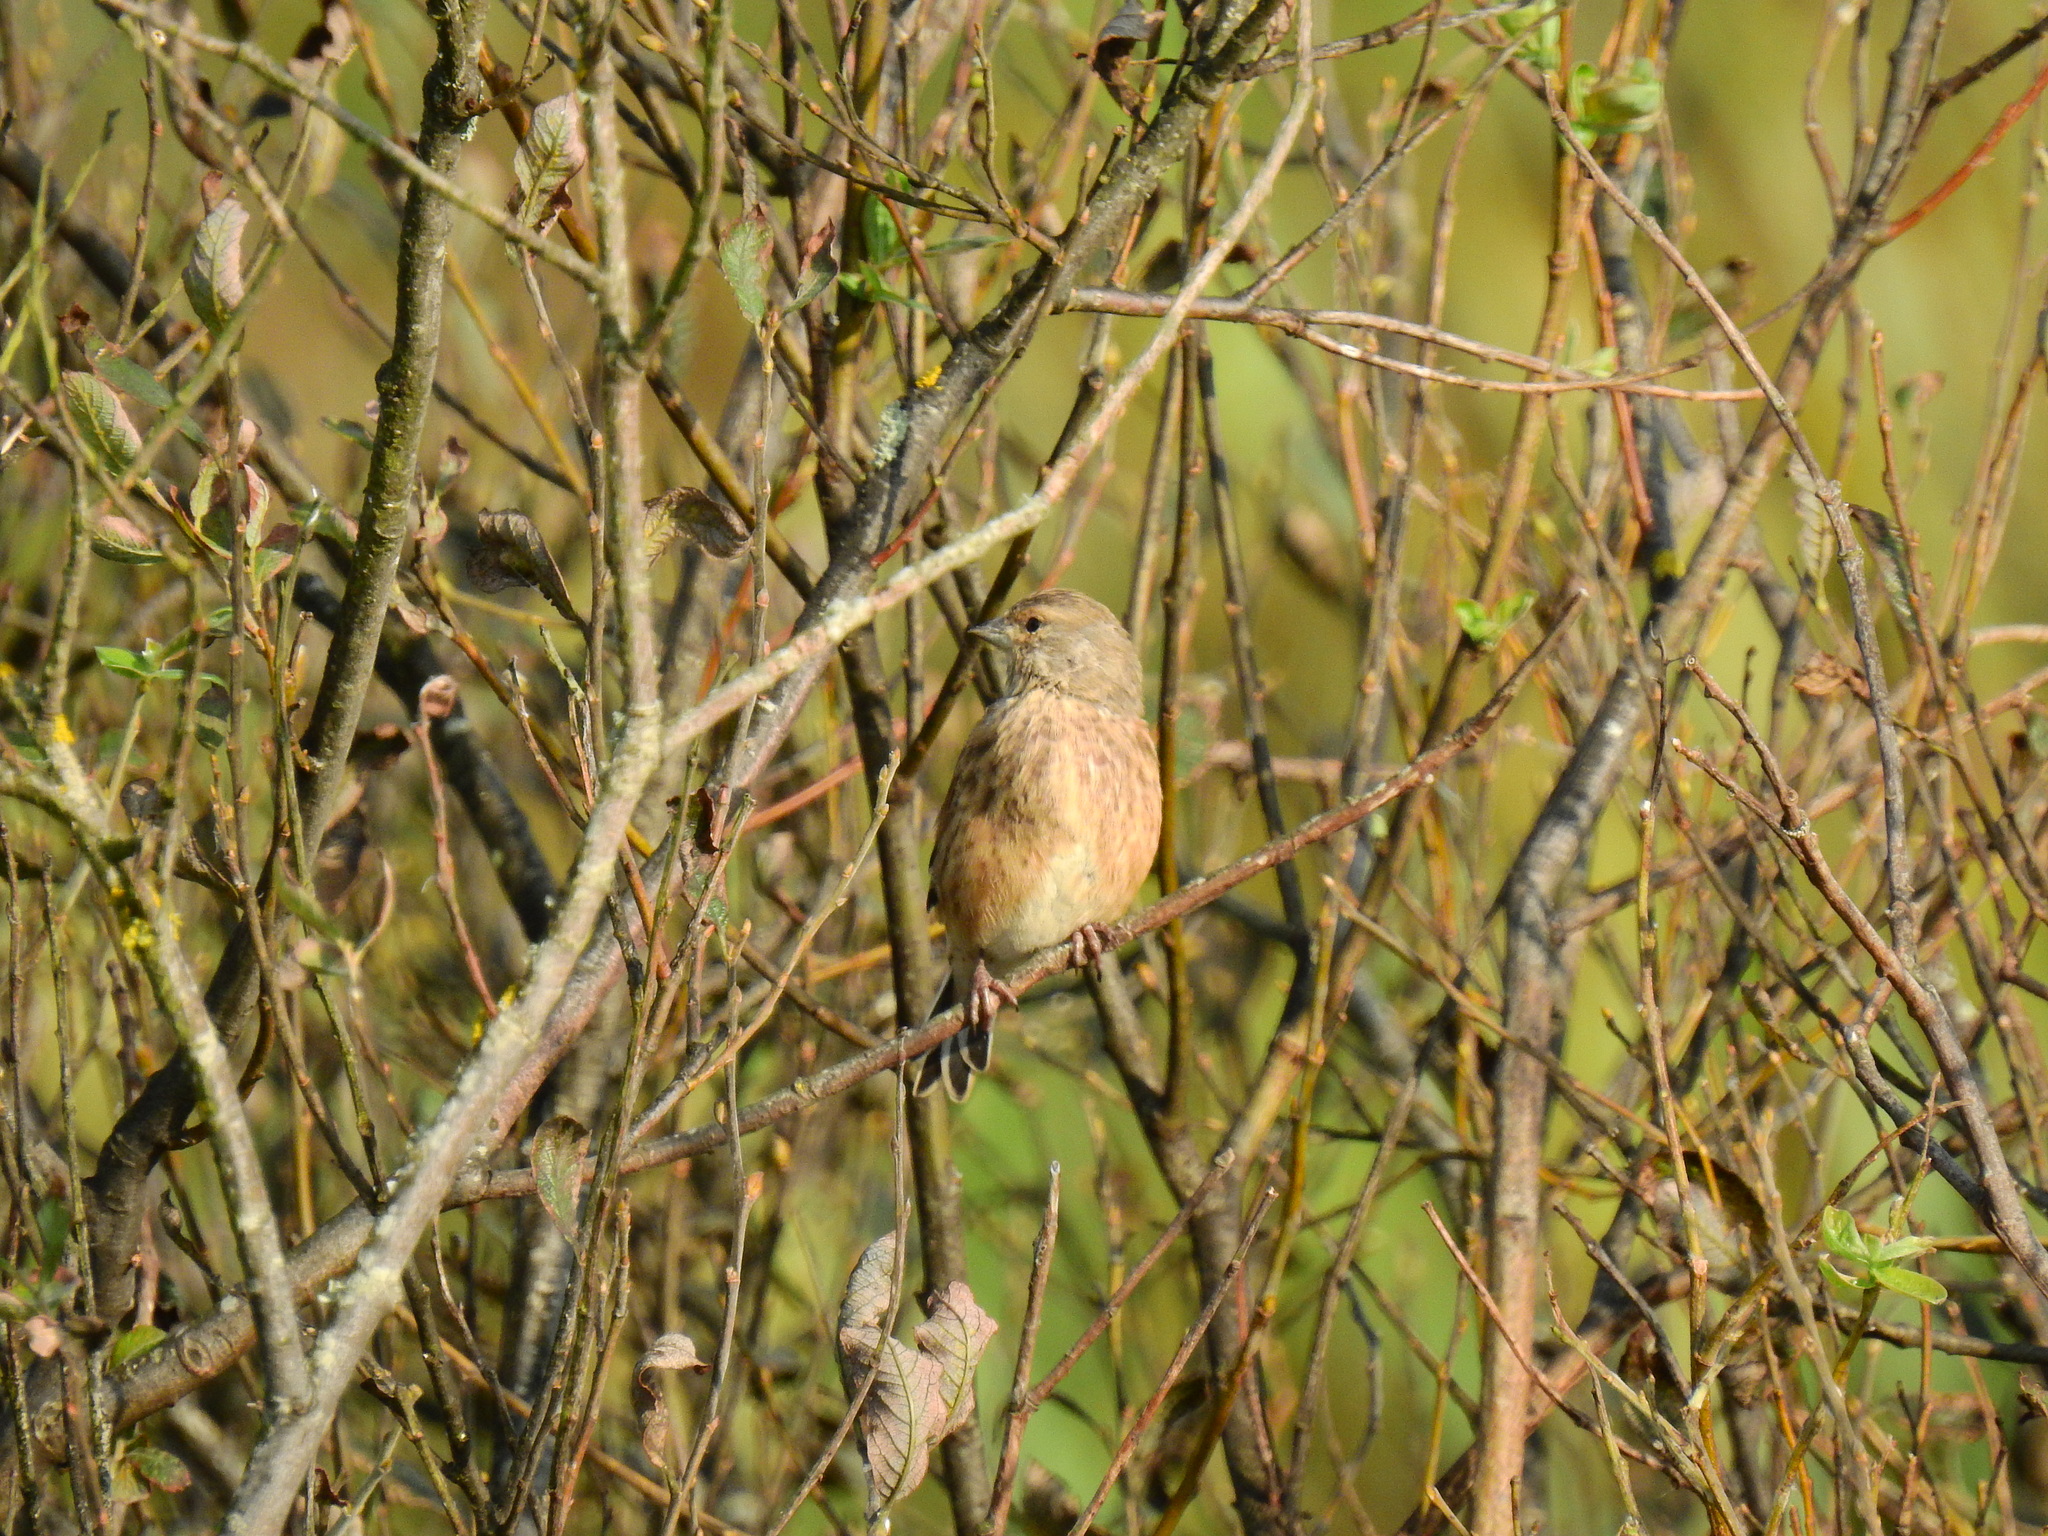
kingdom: Animalia
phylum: Chordata
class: Aves
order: Passeriformes
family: Fringillidae
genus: Linaria
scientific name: Linaria cannabina
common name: Common linnet
